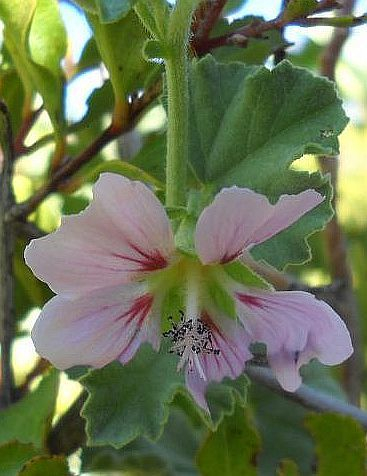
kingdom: Plantae
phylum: Tracheophyta
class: Magnoliopsida
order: Malvales
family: Malvaceae
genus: Anisodontea
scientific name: Anisodontea triloba
